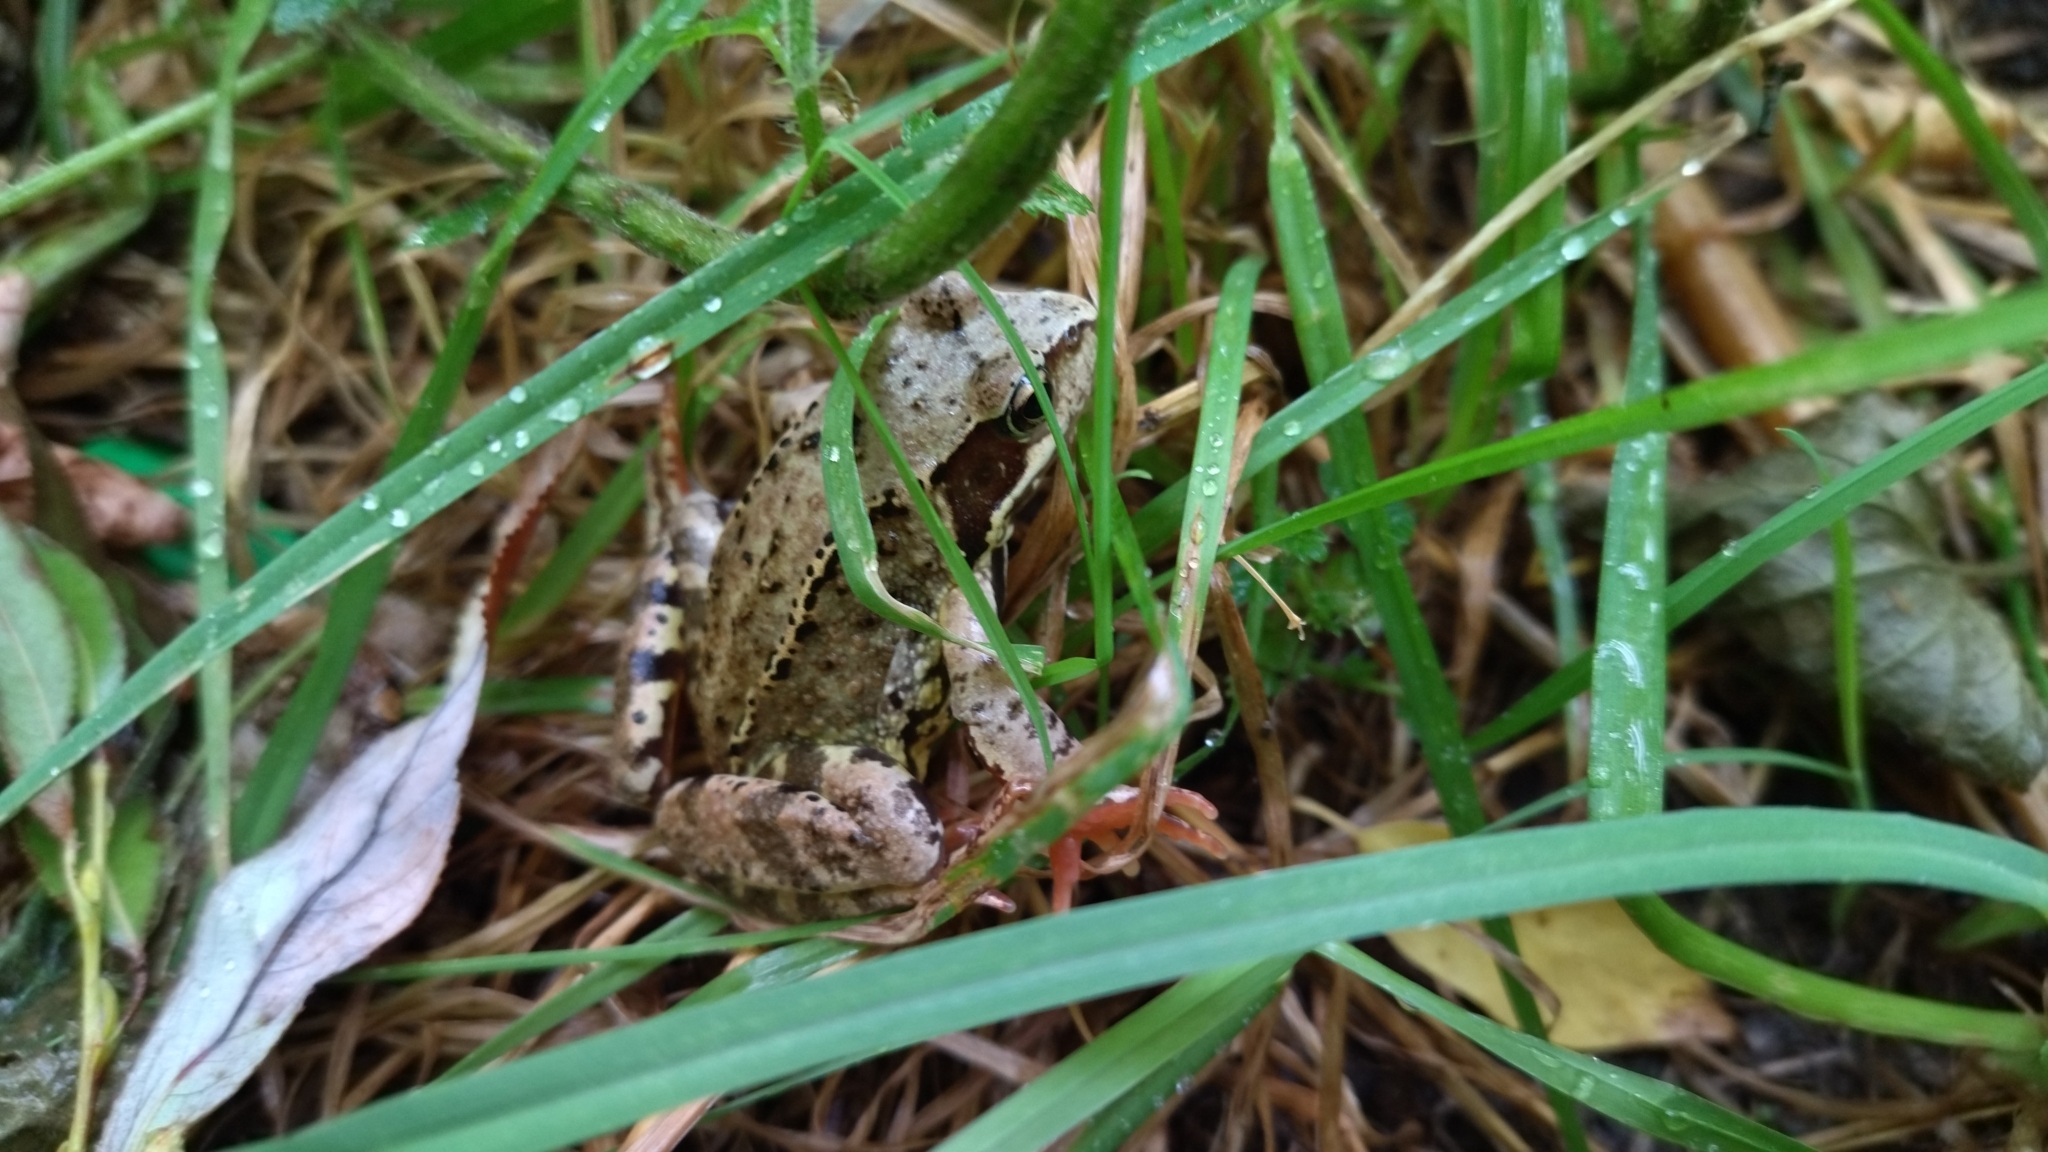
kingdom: Animalia
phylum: Chordata
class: Amphibia
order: Anura
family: Ranidae
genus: Rana
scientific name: Rana temporaria
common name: Common frog
